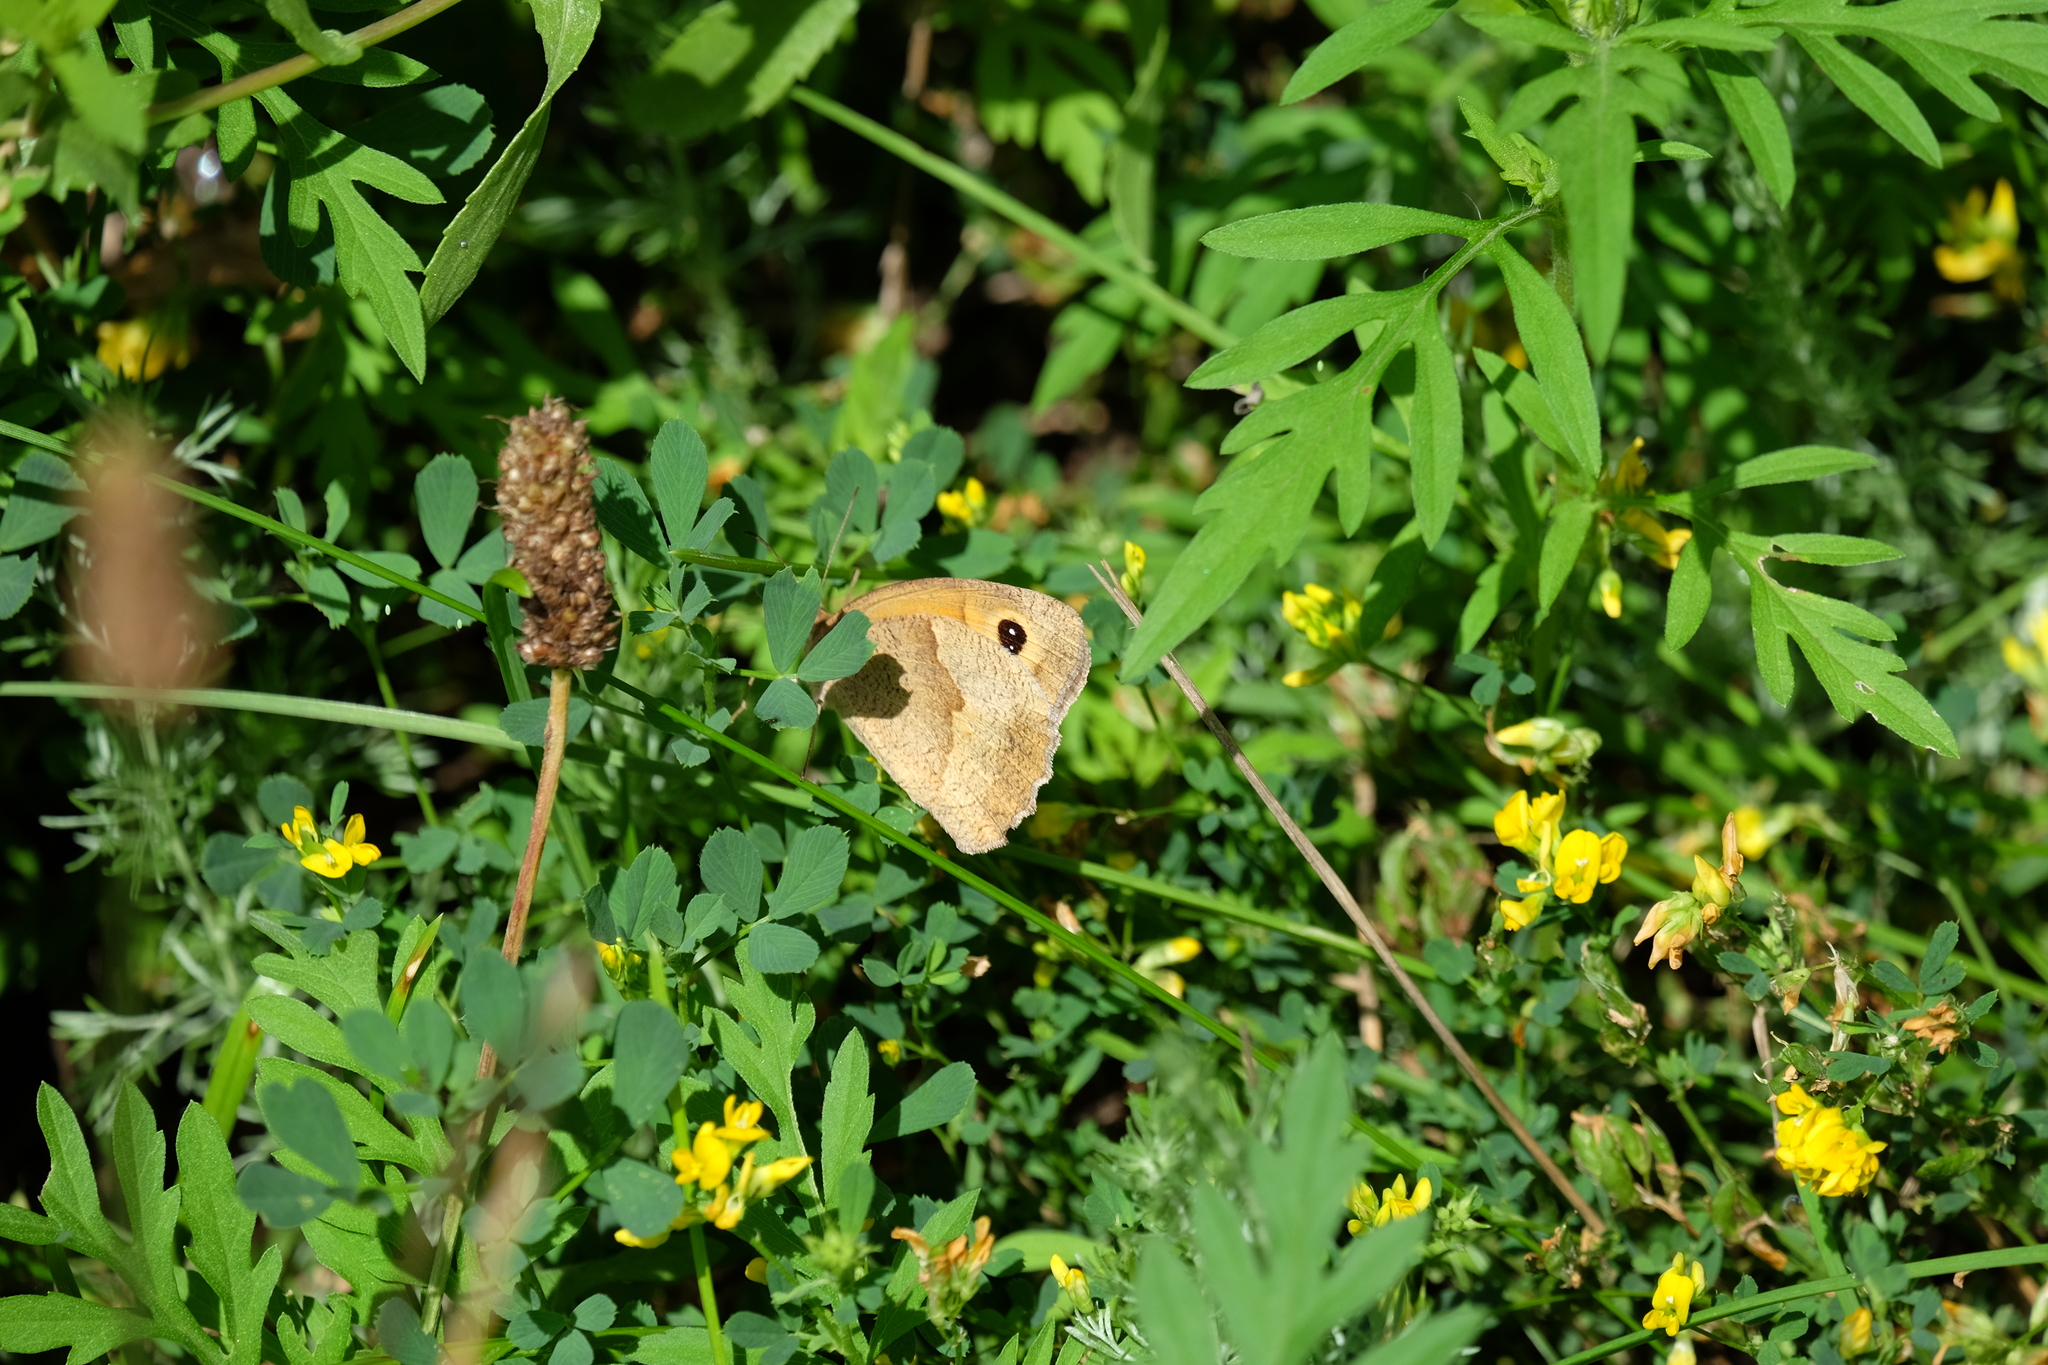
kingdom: Animalia
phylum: Arthropoda
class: Insecta
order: Lepidoptera
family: Nymphalidae
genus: Maniola
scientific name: Maniola jurtina
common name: Meadow brown
